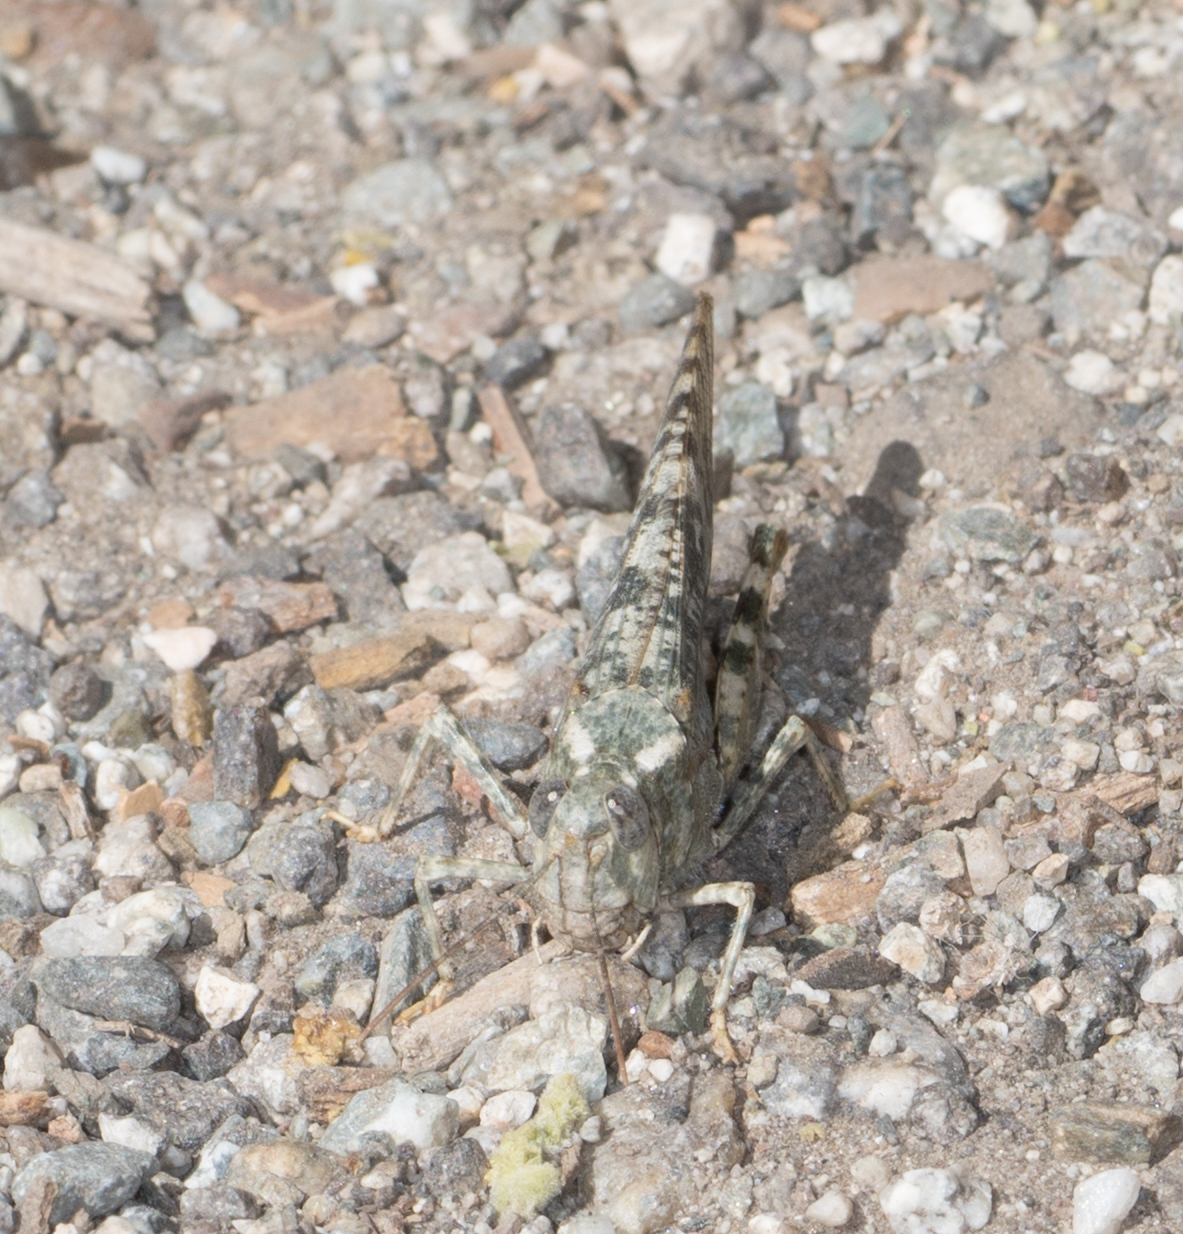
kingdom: Animalia
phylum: Arthropoda
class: Insecta
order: Orthoptera
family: Acrididae
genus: Circotettix
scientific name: Circotettix shastanus
